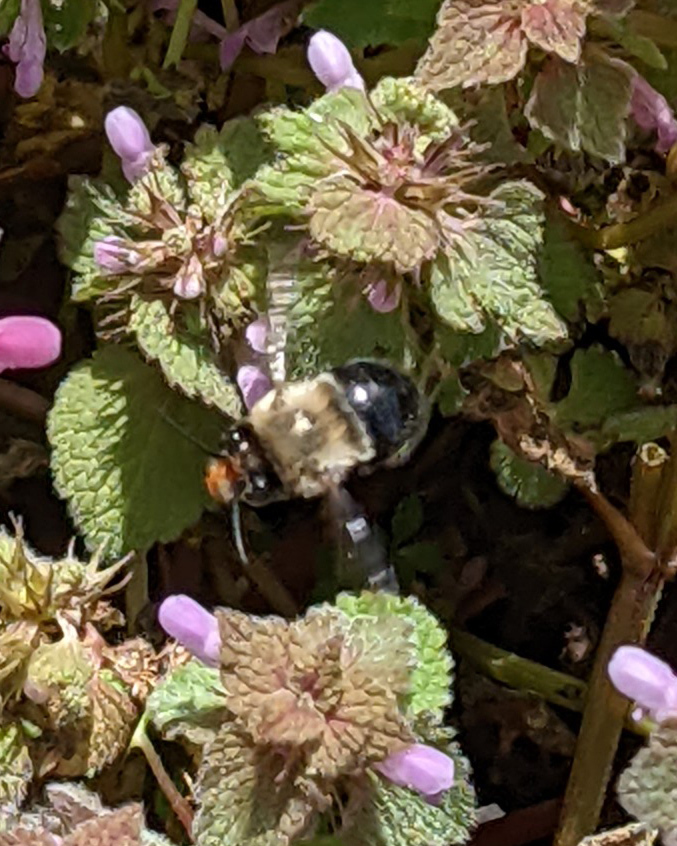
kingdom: Animalia
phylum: Arthropoda
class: Insecta
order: Hymenoptera
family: Apidae
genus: Habropoda
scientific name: Habropoda laboriosa
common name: Southeastern blueberry bee
